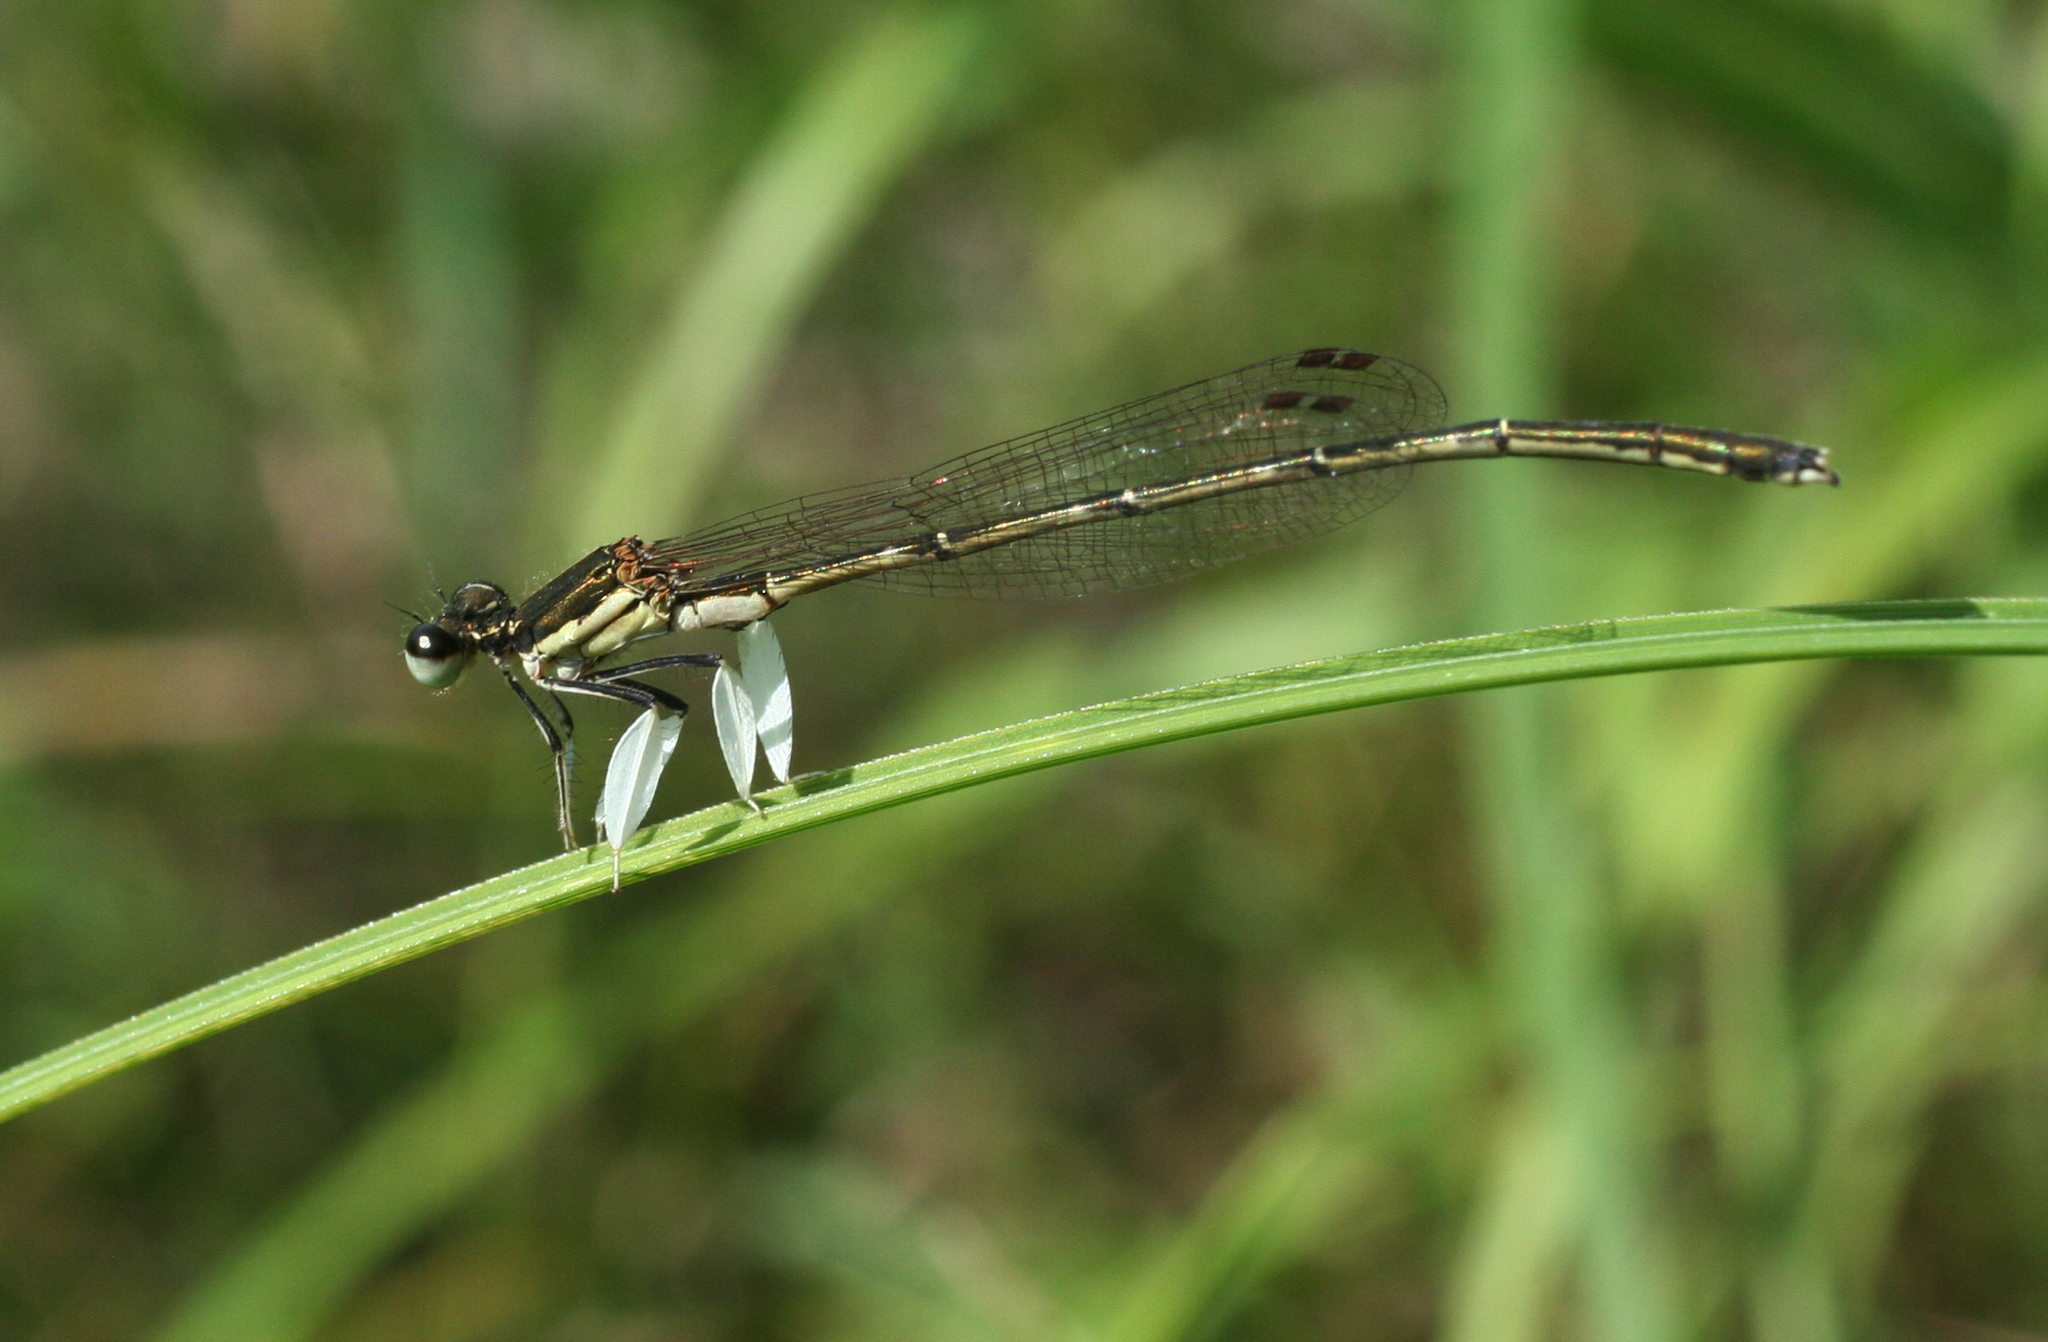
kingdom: Animalia
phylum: Arthropoda
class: Insecta
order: Odonata
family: Platycnemididae
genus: Platycnemis
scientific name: Platycnemis phyllopoda
